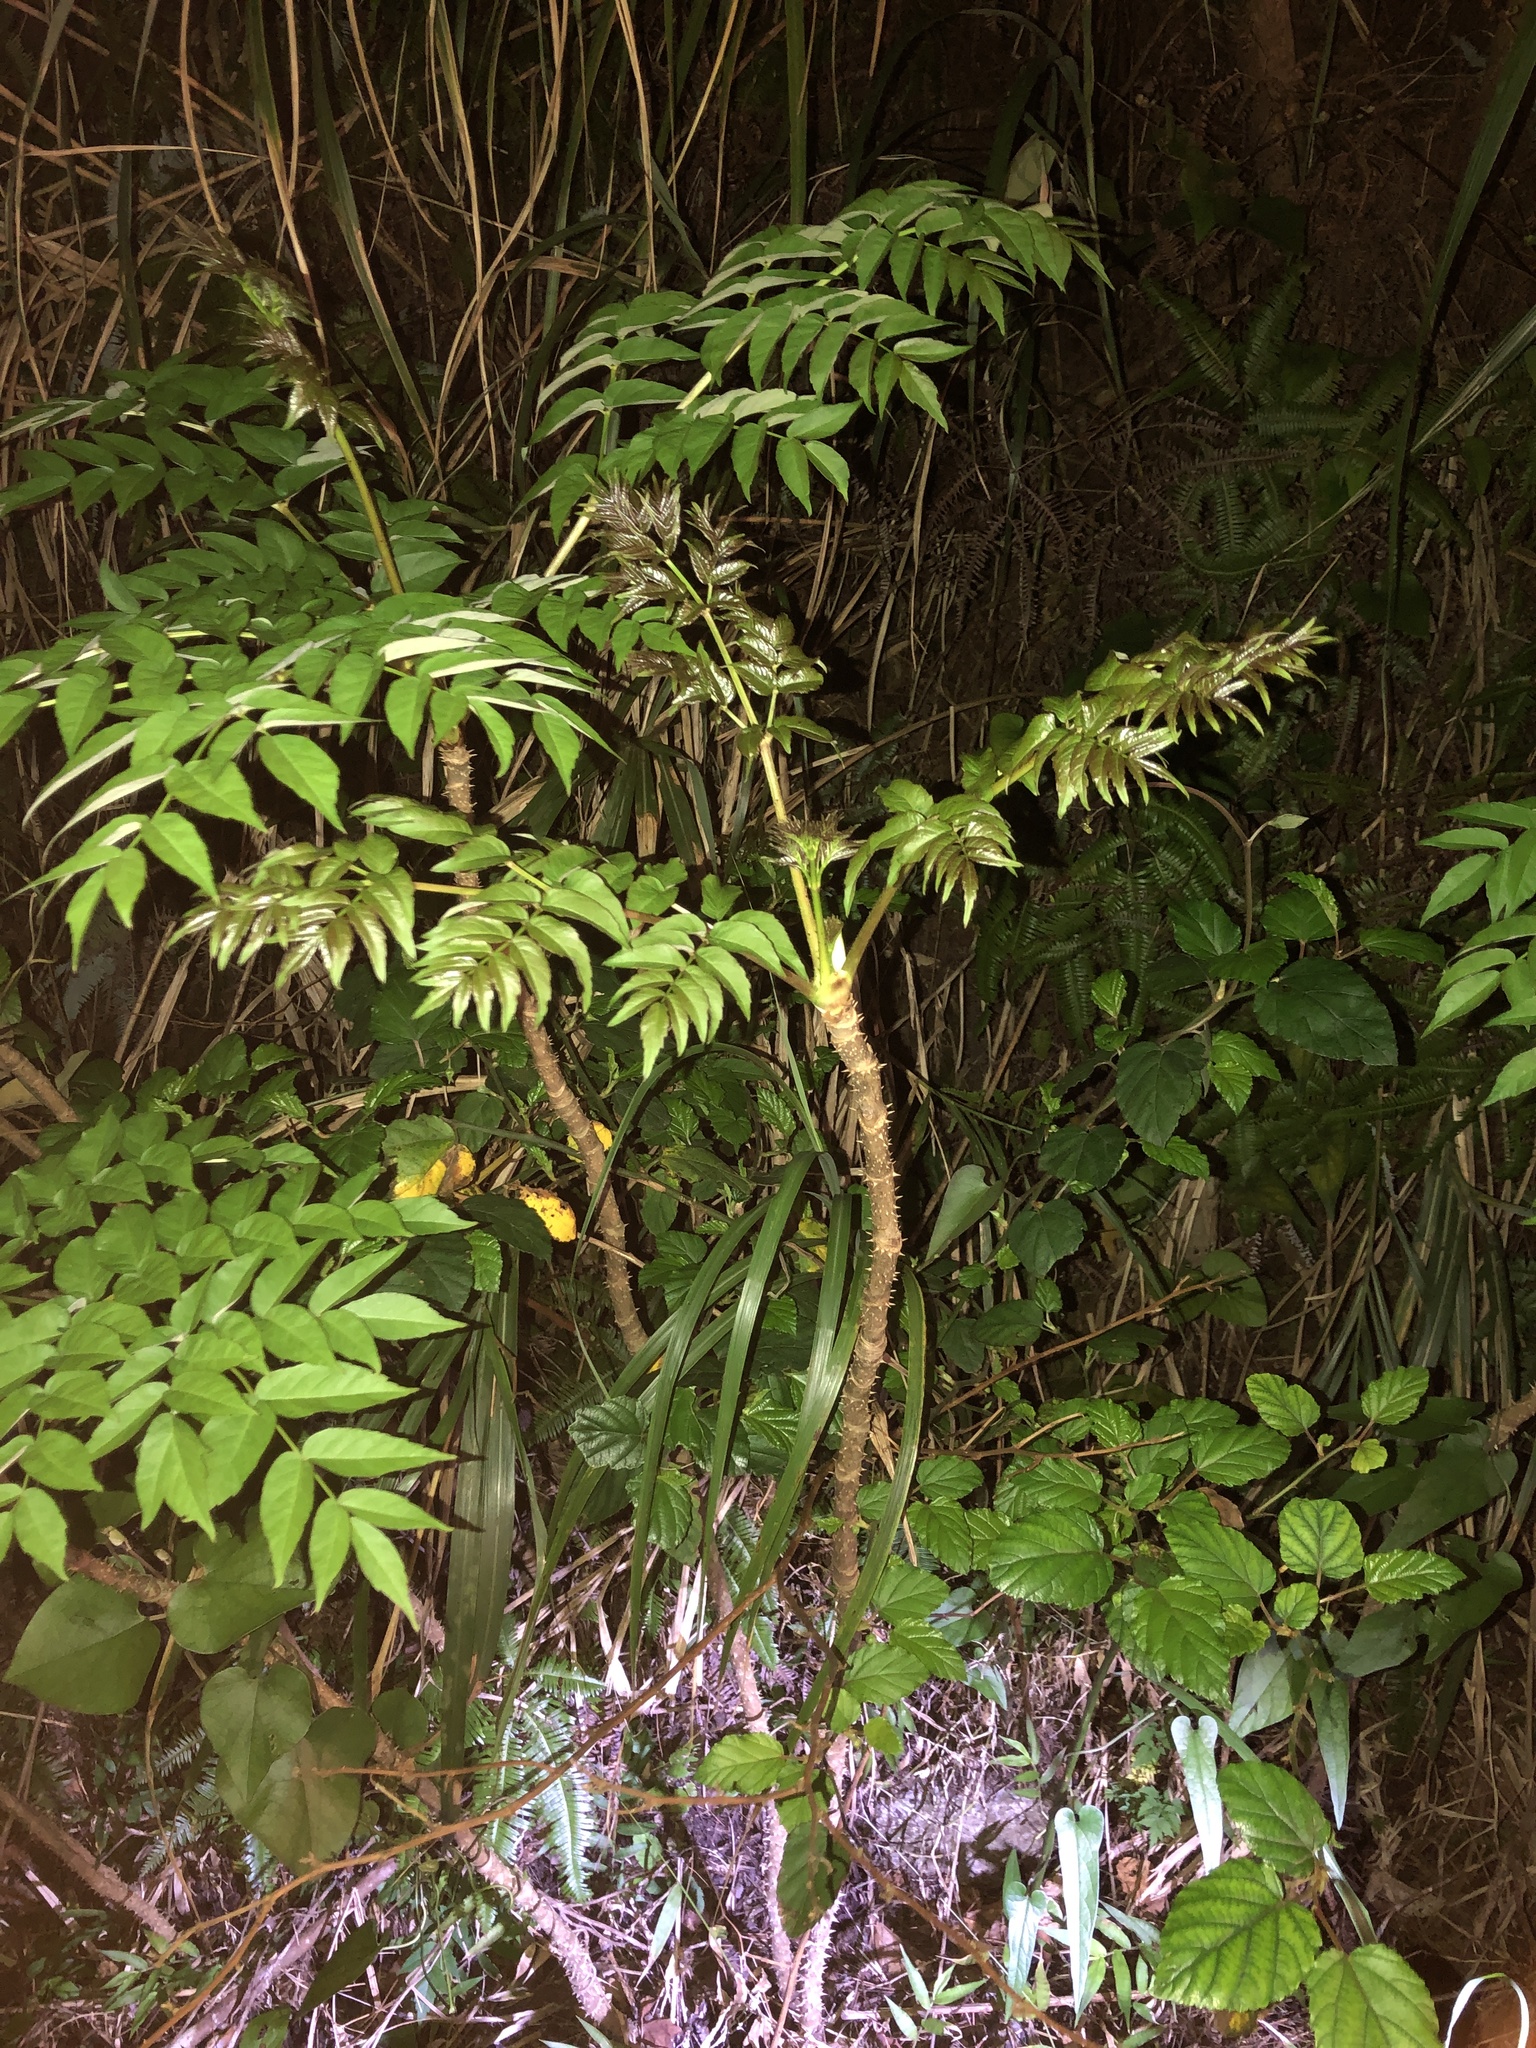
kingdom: Plantae
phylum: Tracheophyta
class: Magnoliopsida
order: Apiales
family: Araliaceae
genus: Aralia
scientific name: Aralia elata
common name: Japanese angelica-tree
